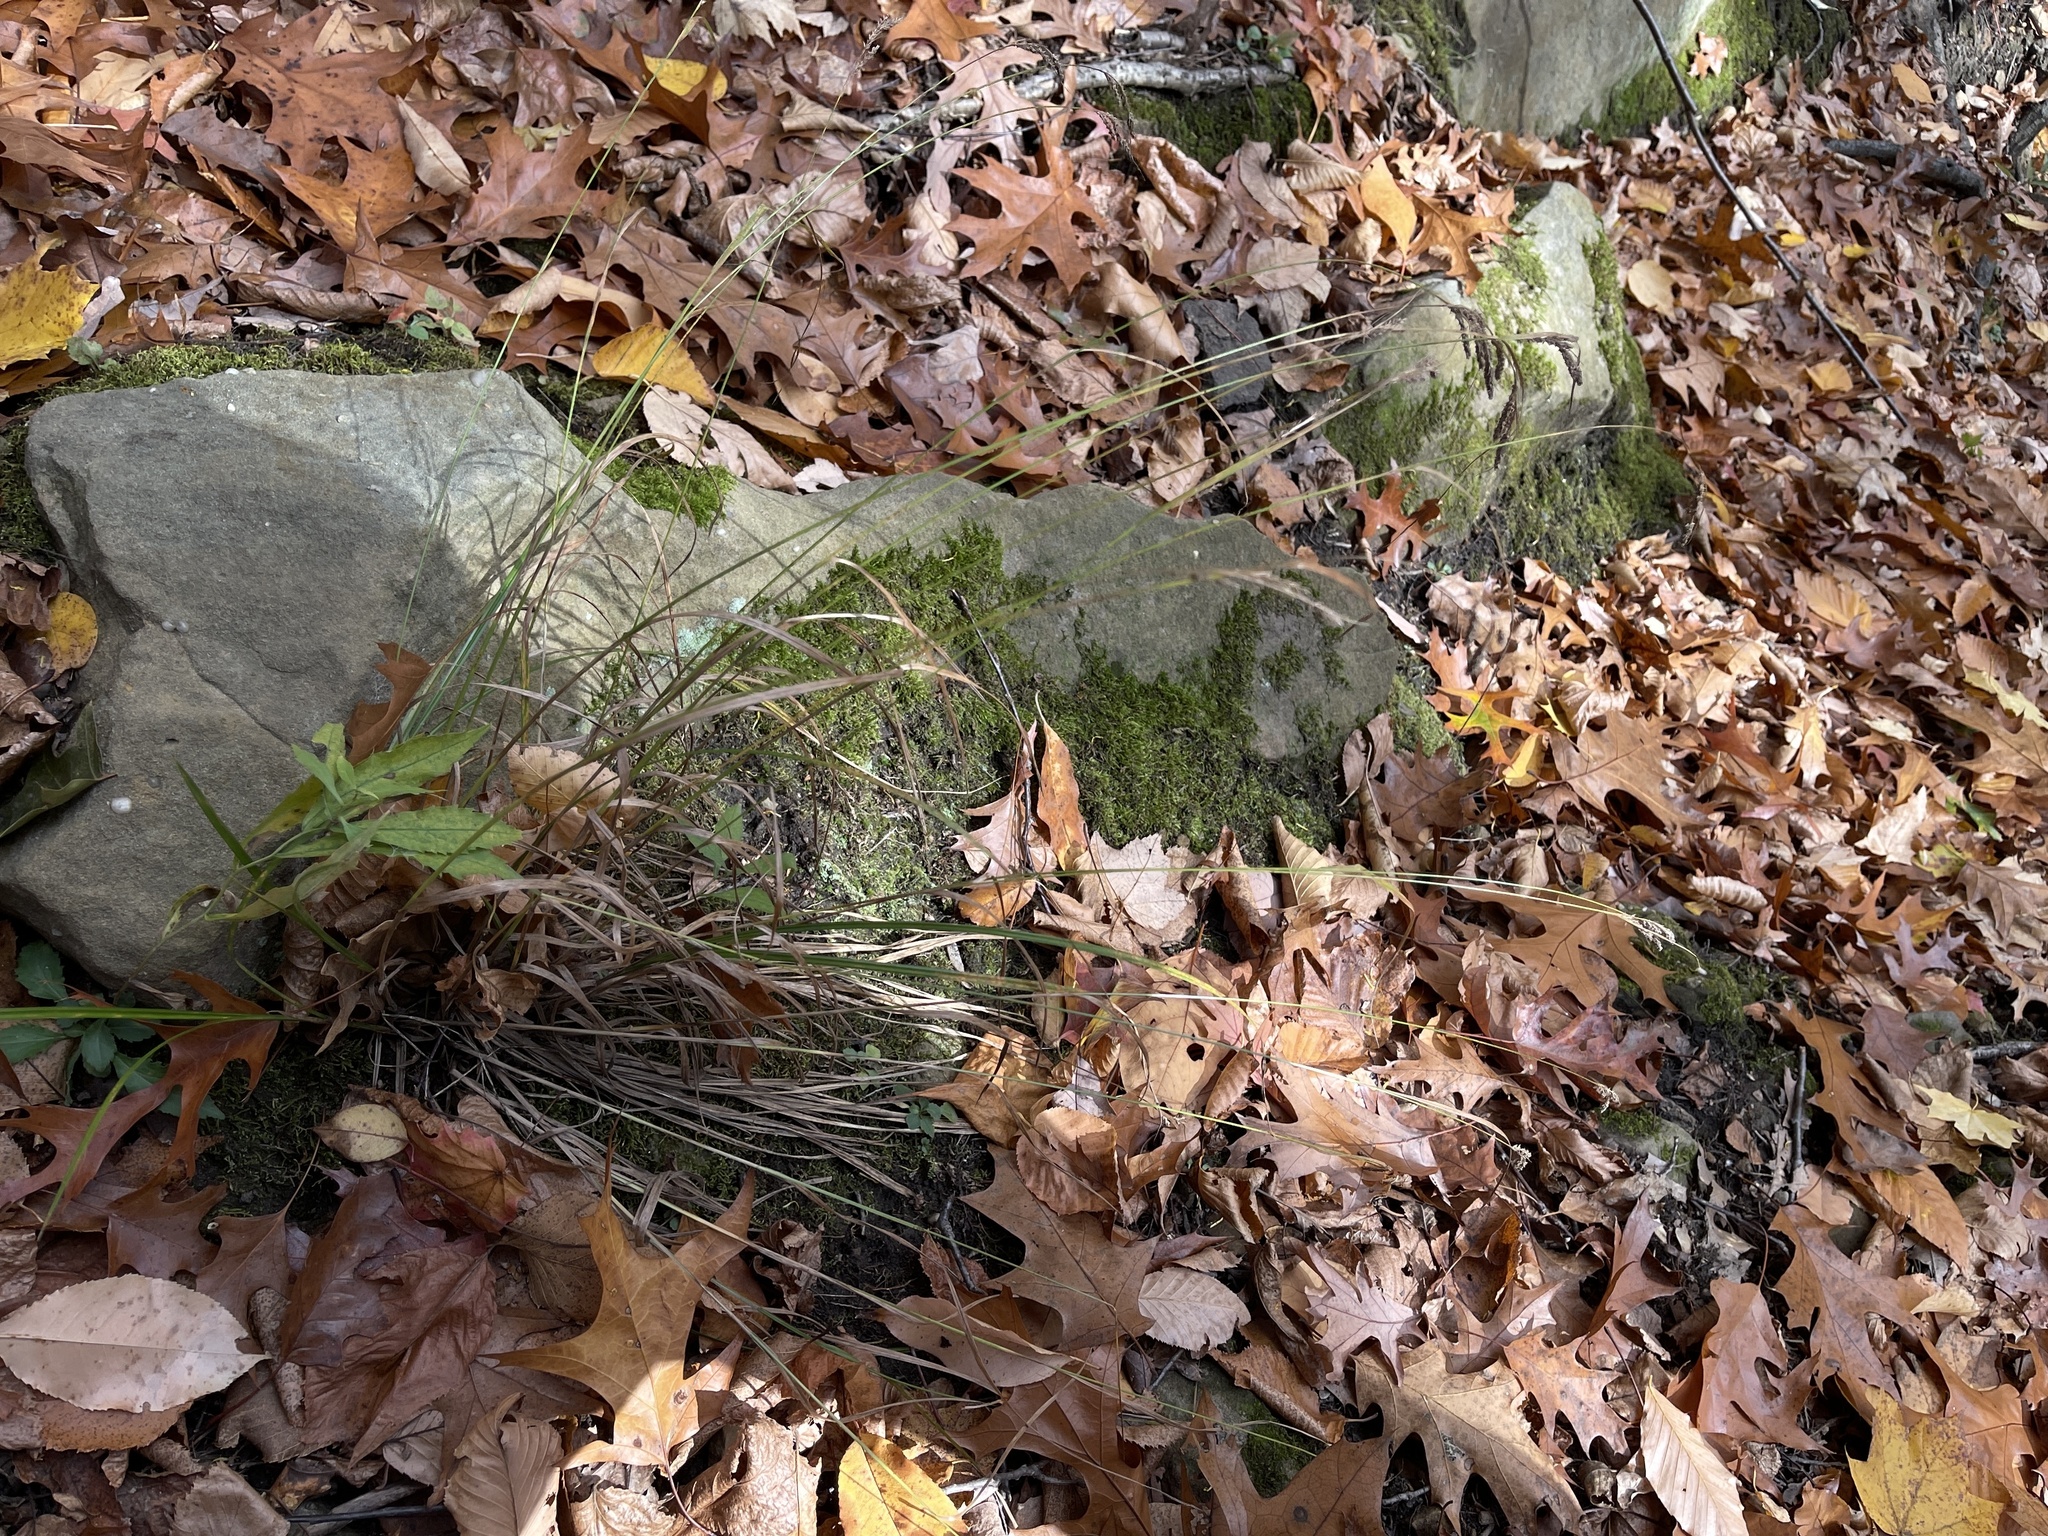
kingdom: Plantae
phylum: Tracheophyta
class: Liliopsida
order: Poales
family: Cyperaceae
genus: Carex
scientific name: Carex virescens
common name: Ribbed sedge
